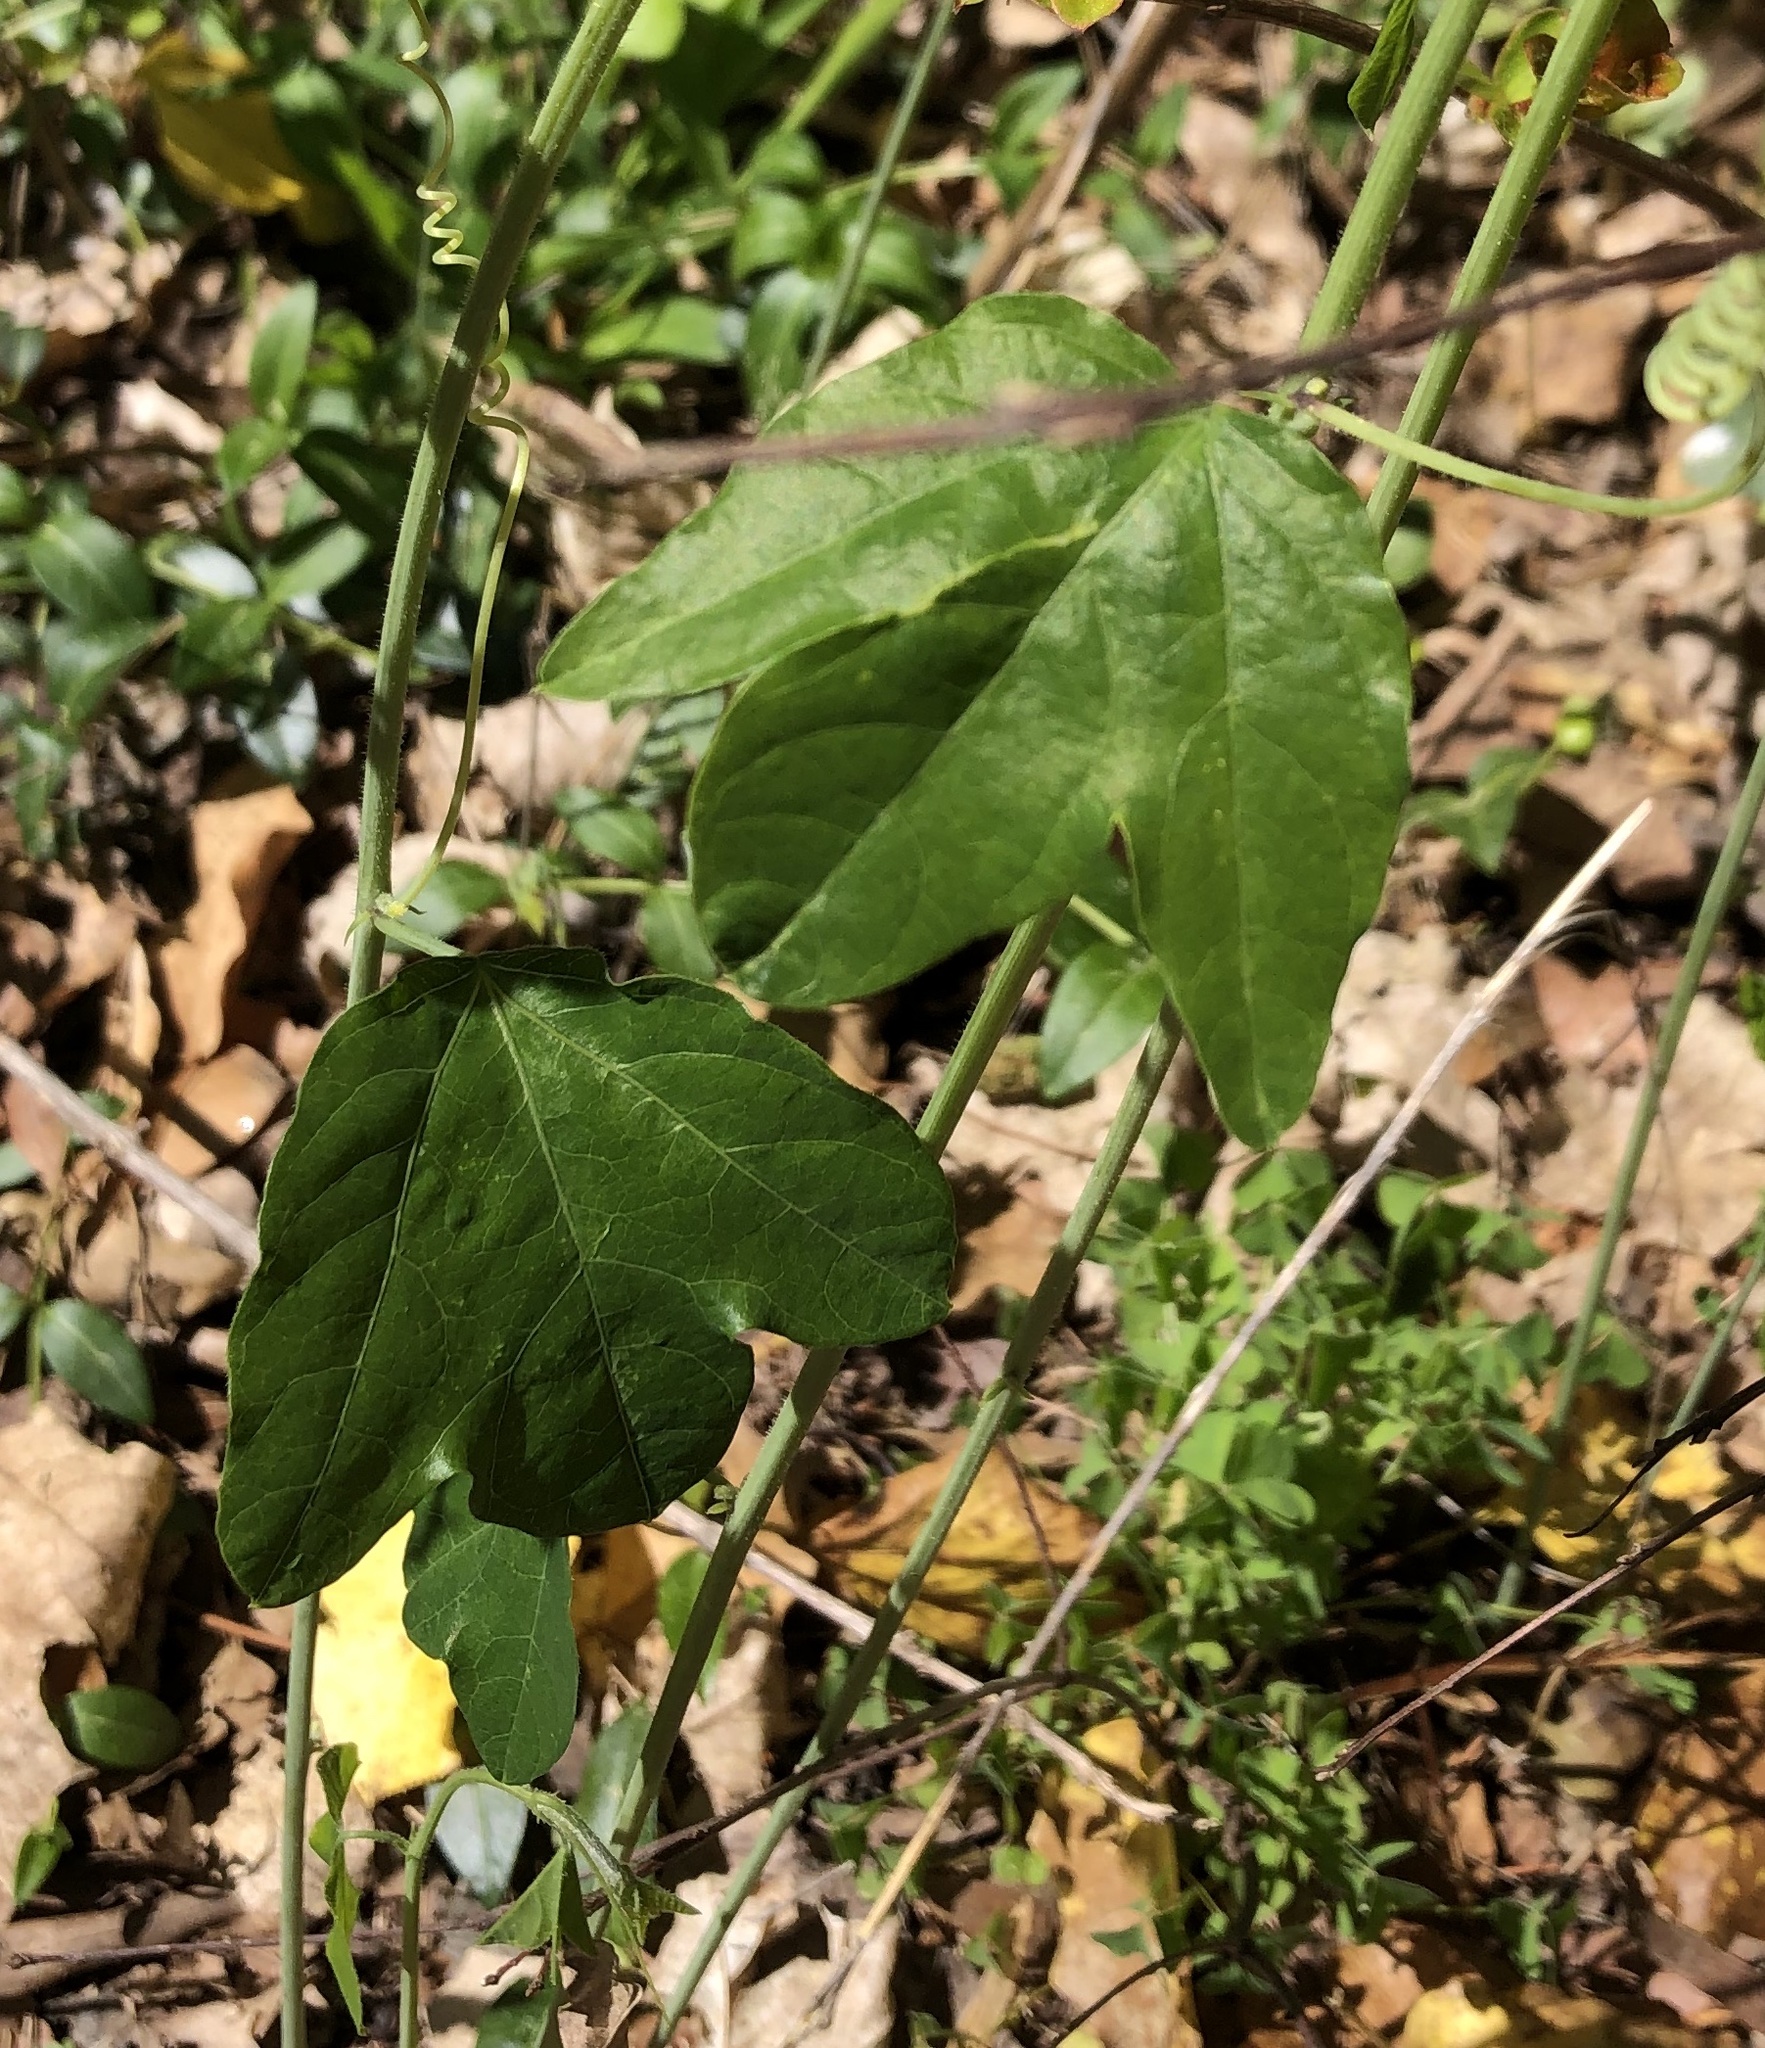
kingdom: Plantae
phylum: Tracheophyta
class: Magnoliopsida
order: Malpighiales
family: Passifloraceae
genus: Passiflora
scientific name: Passiflora lutea
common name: Yellow passionflower
